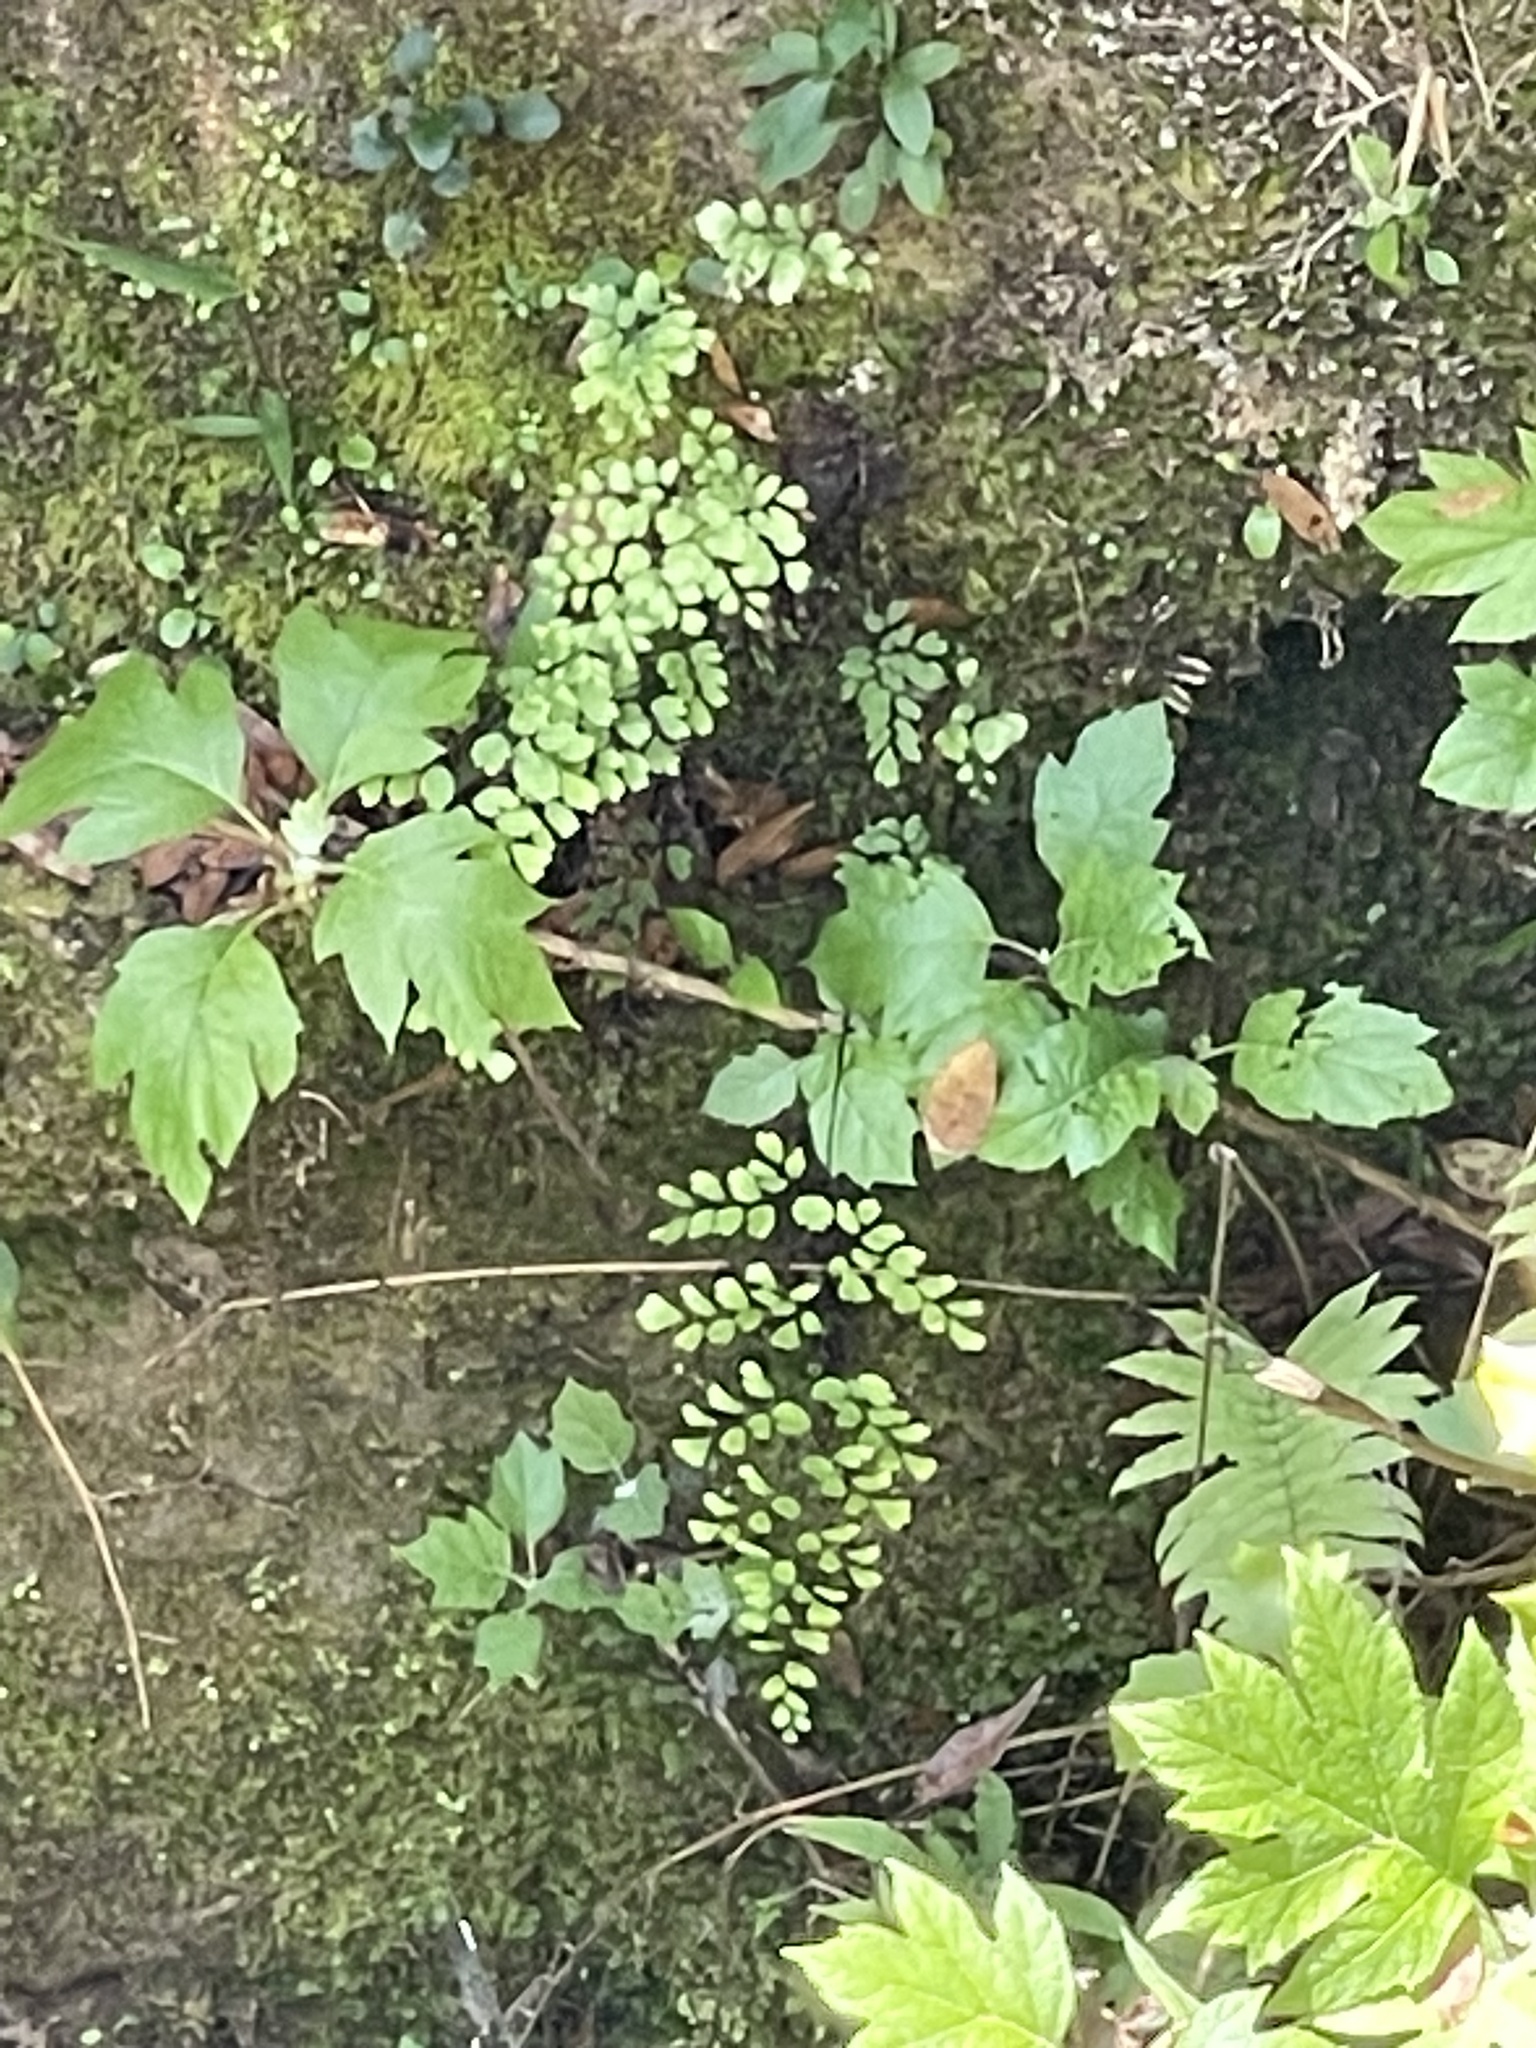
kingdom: Plantae
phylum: Tracheophyta
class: Polypodiopsida
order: Polypodiales
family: Pteridaceae
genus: Adiantum
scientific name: Adiantum capillus-veneris
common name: Maidenhair fern
